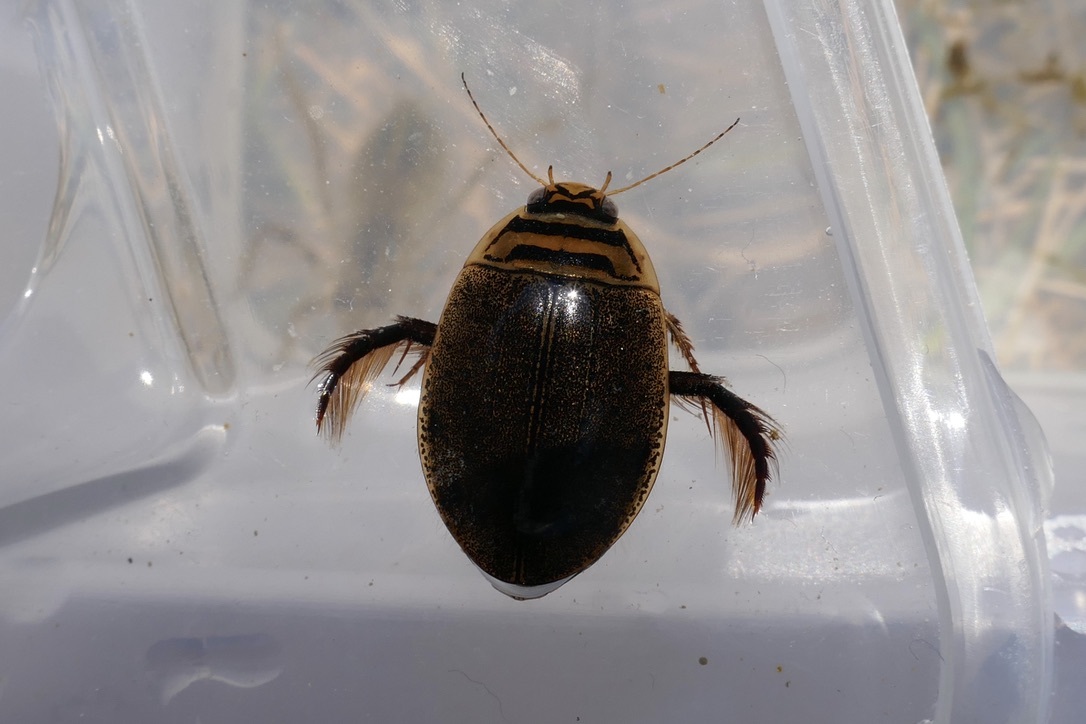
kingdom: Animalia
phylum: Arthropoda
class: Insecta
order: Coleoptera
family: Dytiscidae
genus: Acilius
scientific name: Acilius canaliculatus
